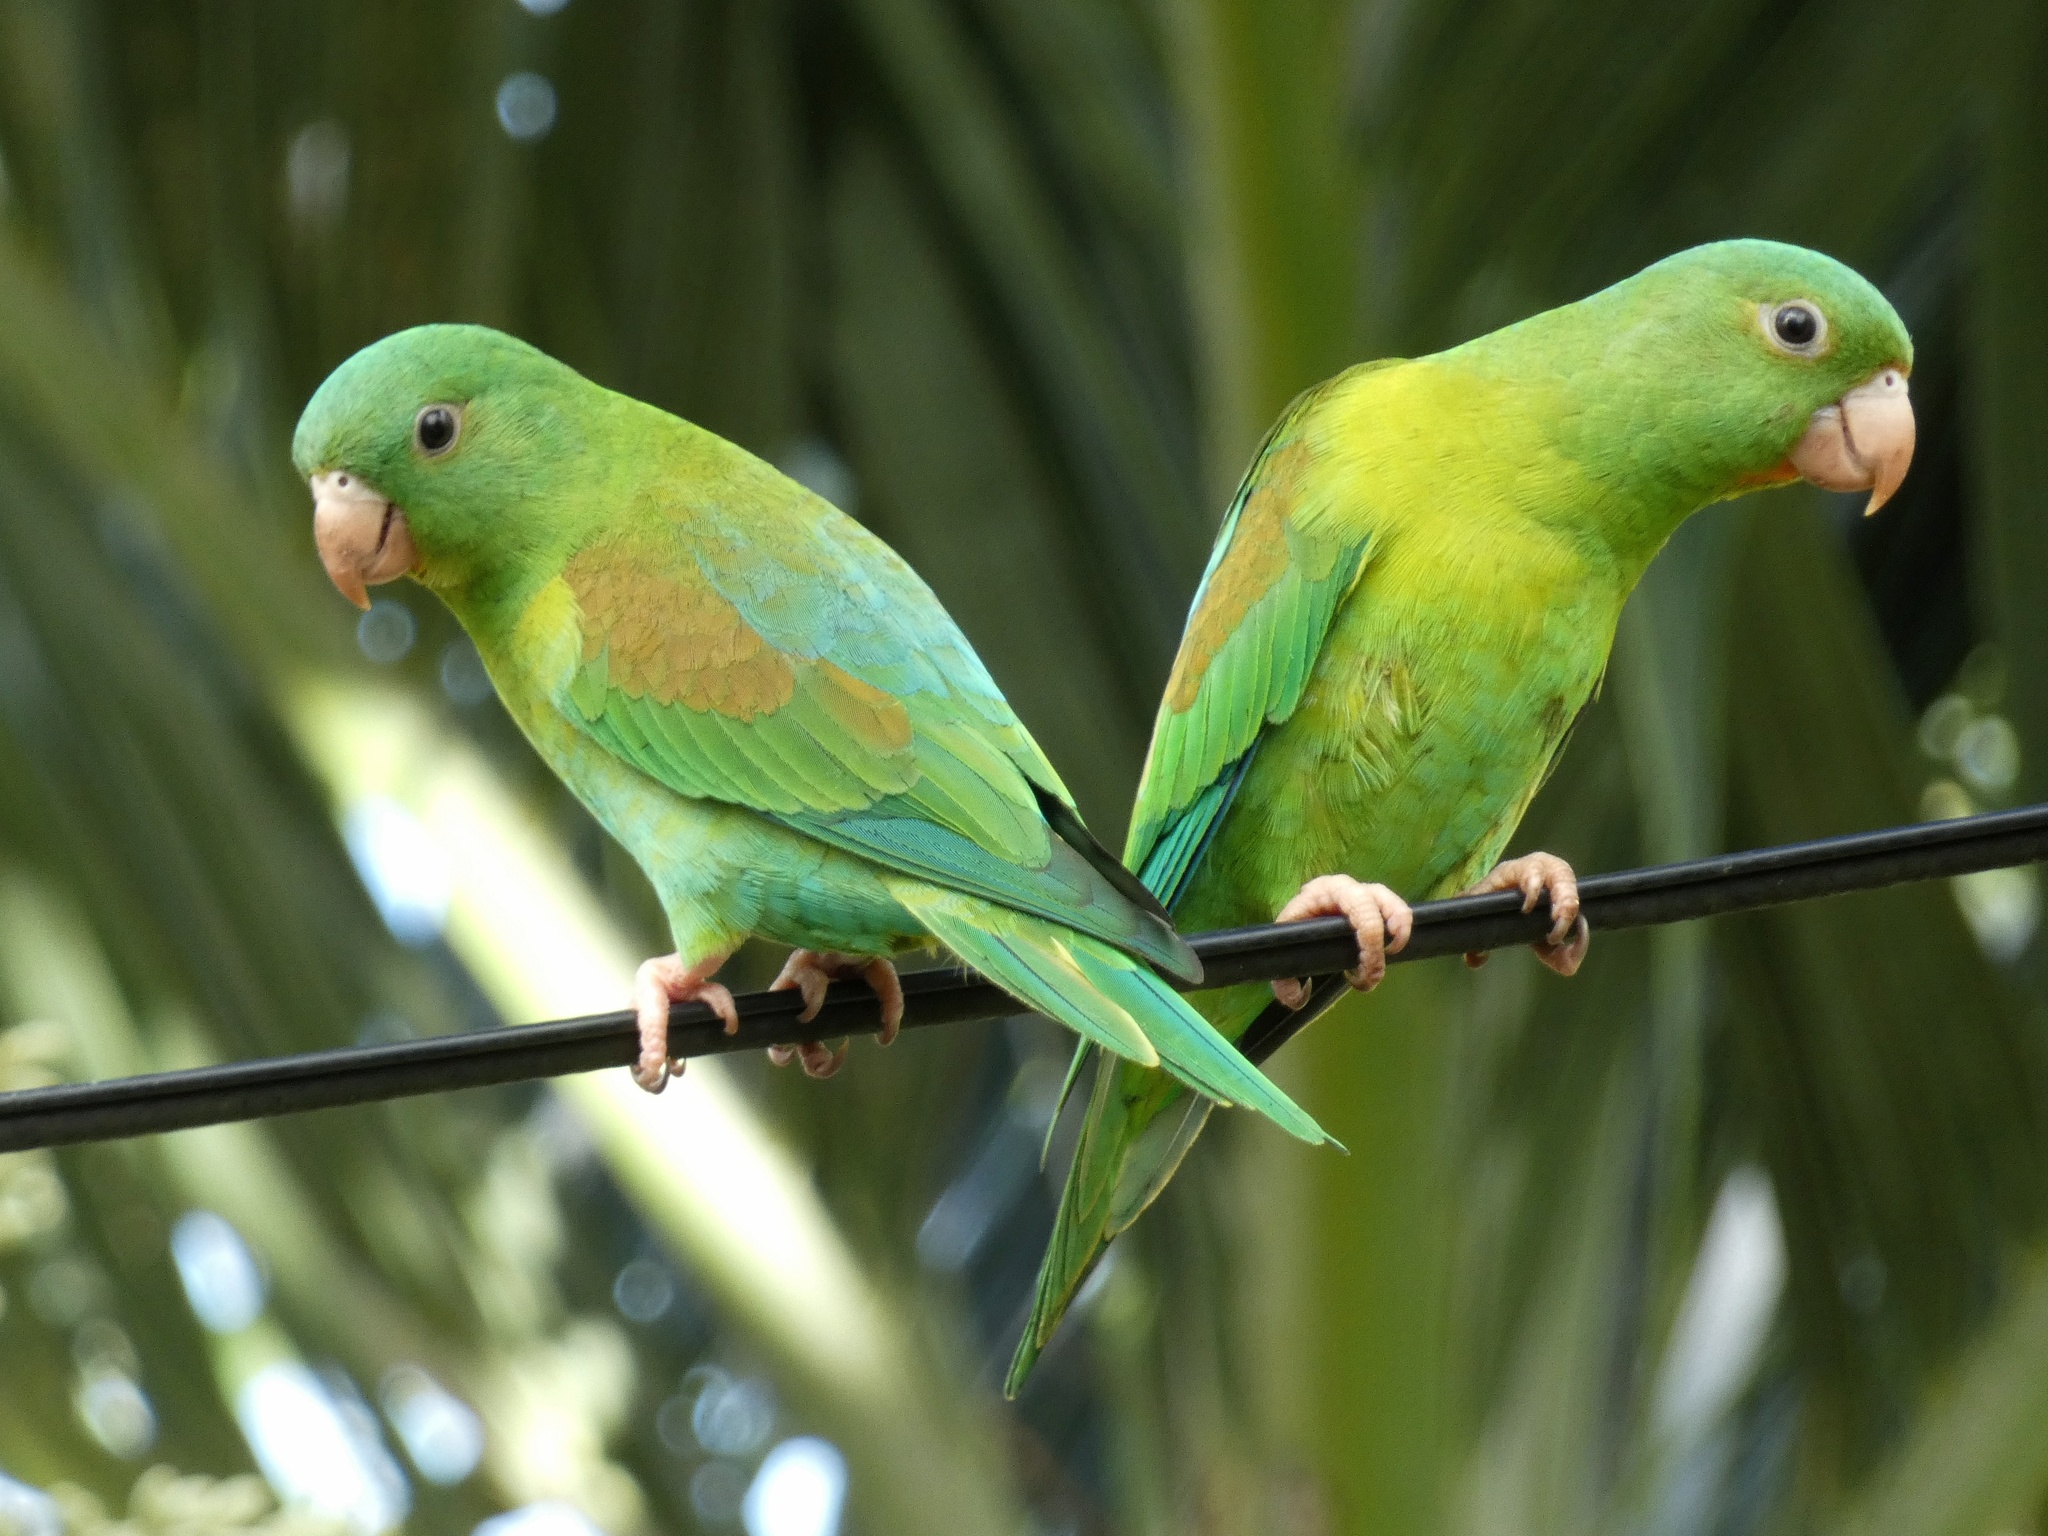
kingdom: Animalia
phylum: Chordata
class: Aves
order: Psittaciformes
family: Psittacidae
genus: Brotogeris
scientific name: Brotogeris jugularis
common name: Orange-chinned parakeet
